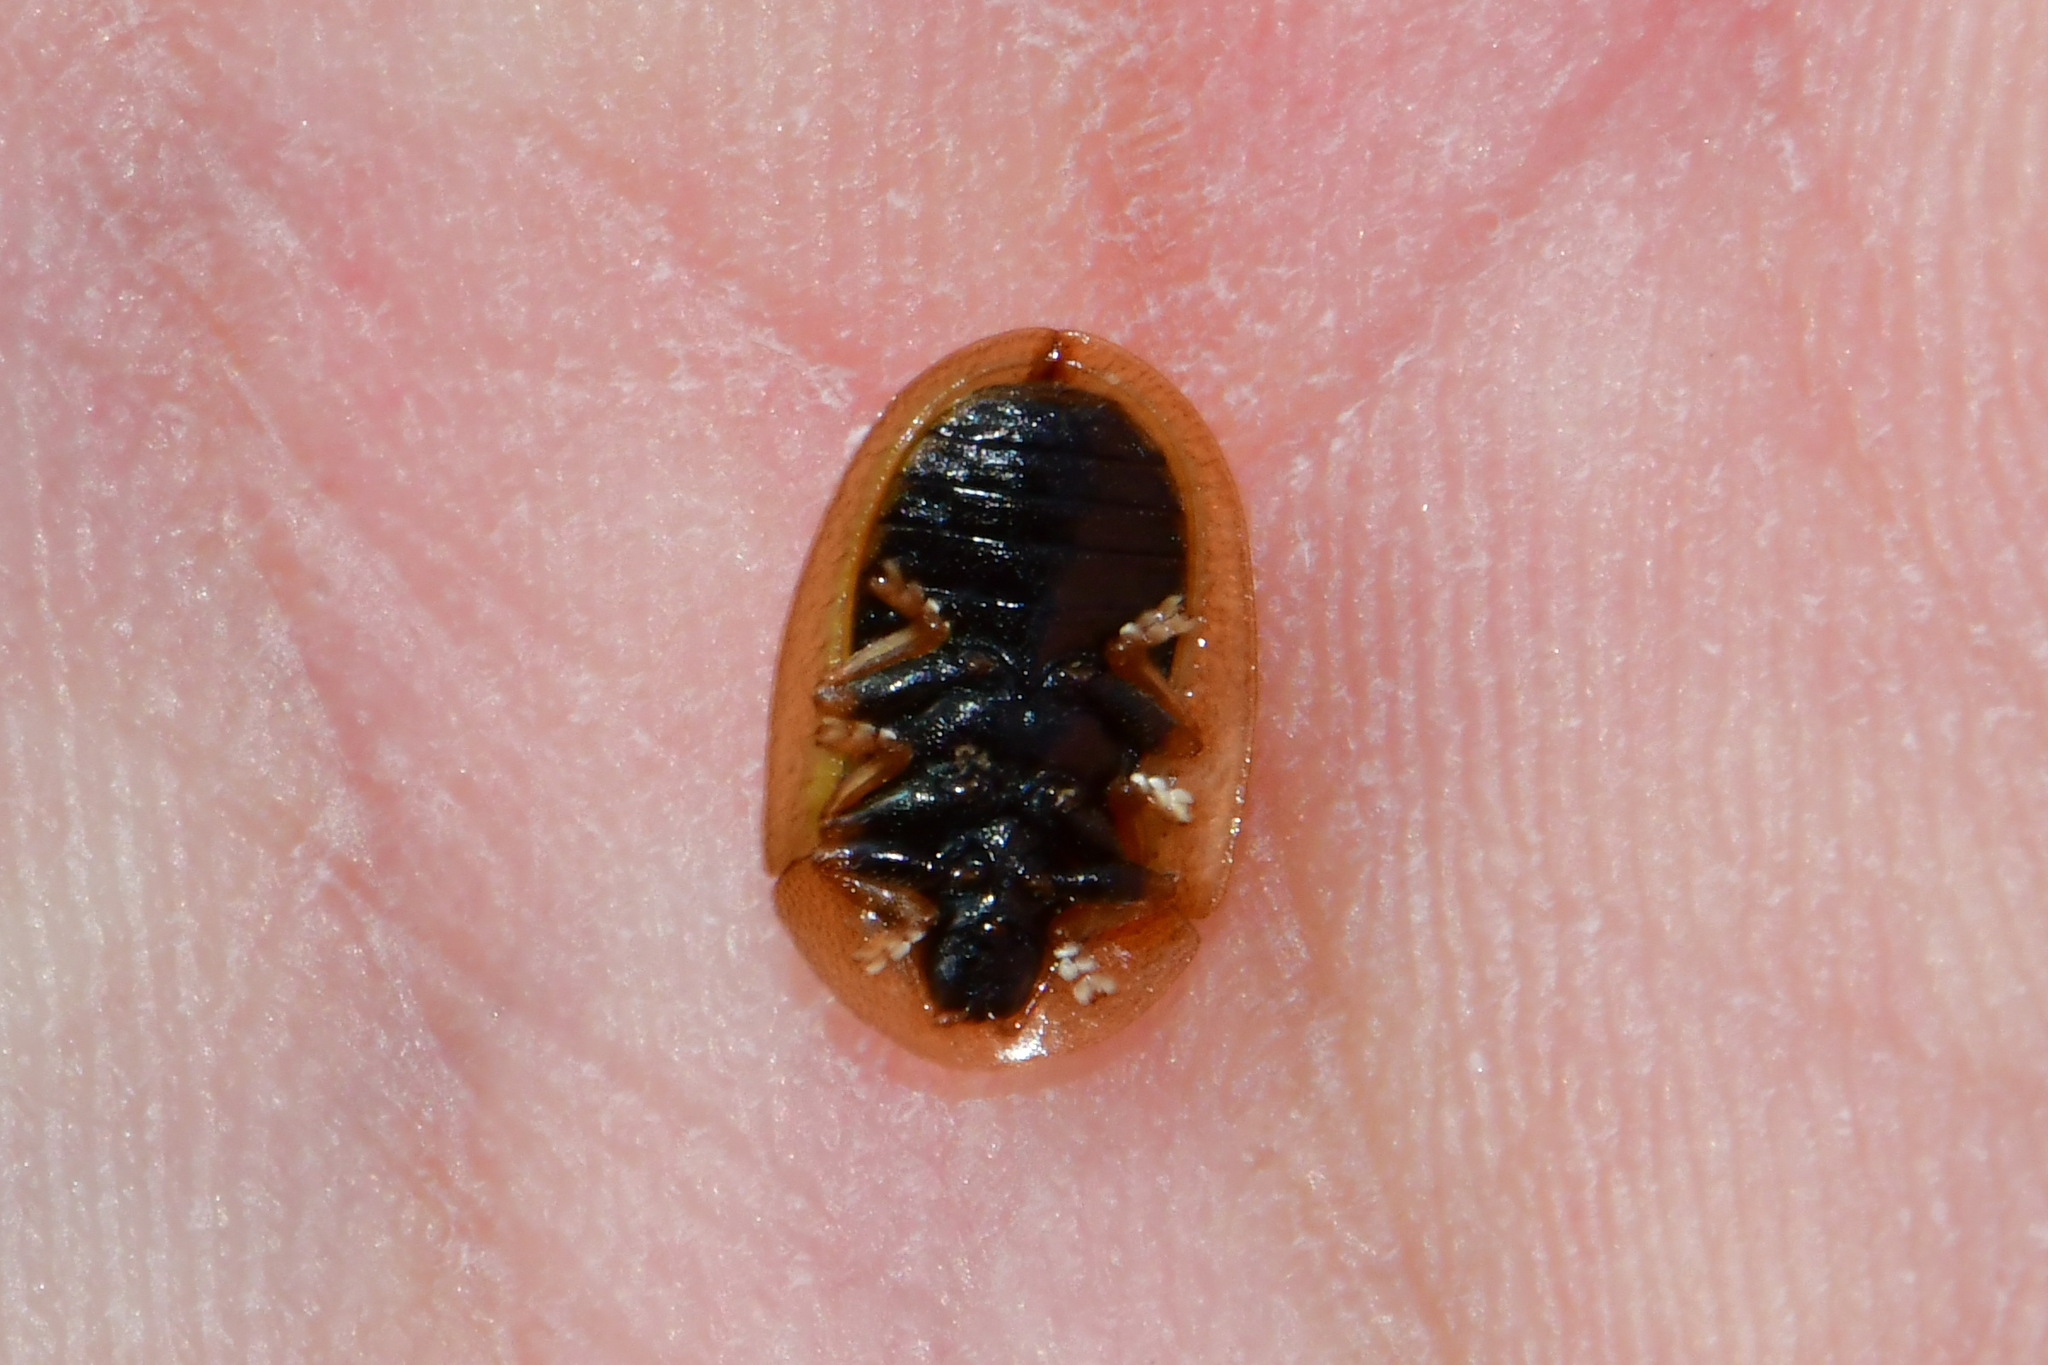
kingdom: Animalia
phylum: Arthropoda
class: Insecta
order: Coleoptera
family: Chrysomelidae
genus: Cassida
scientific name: Cassida vibex
